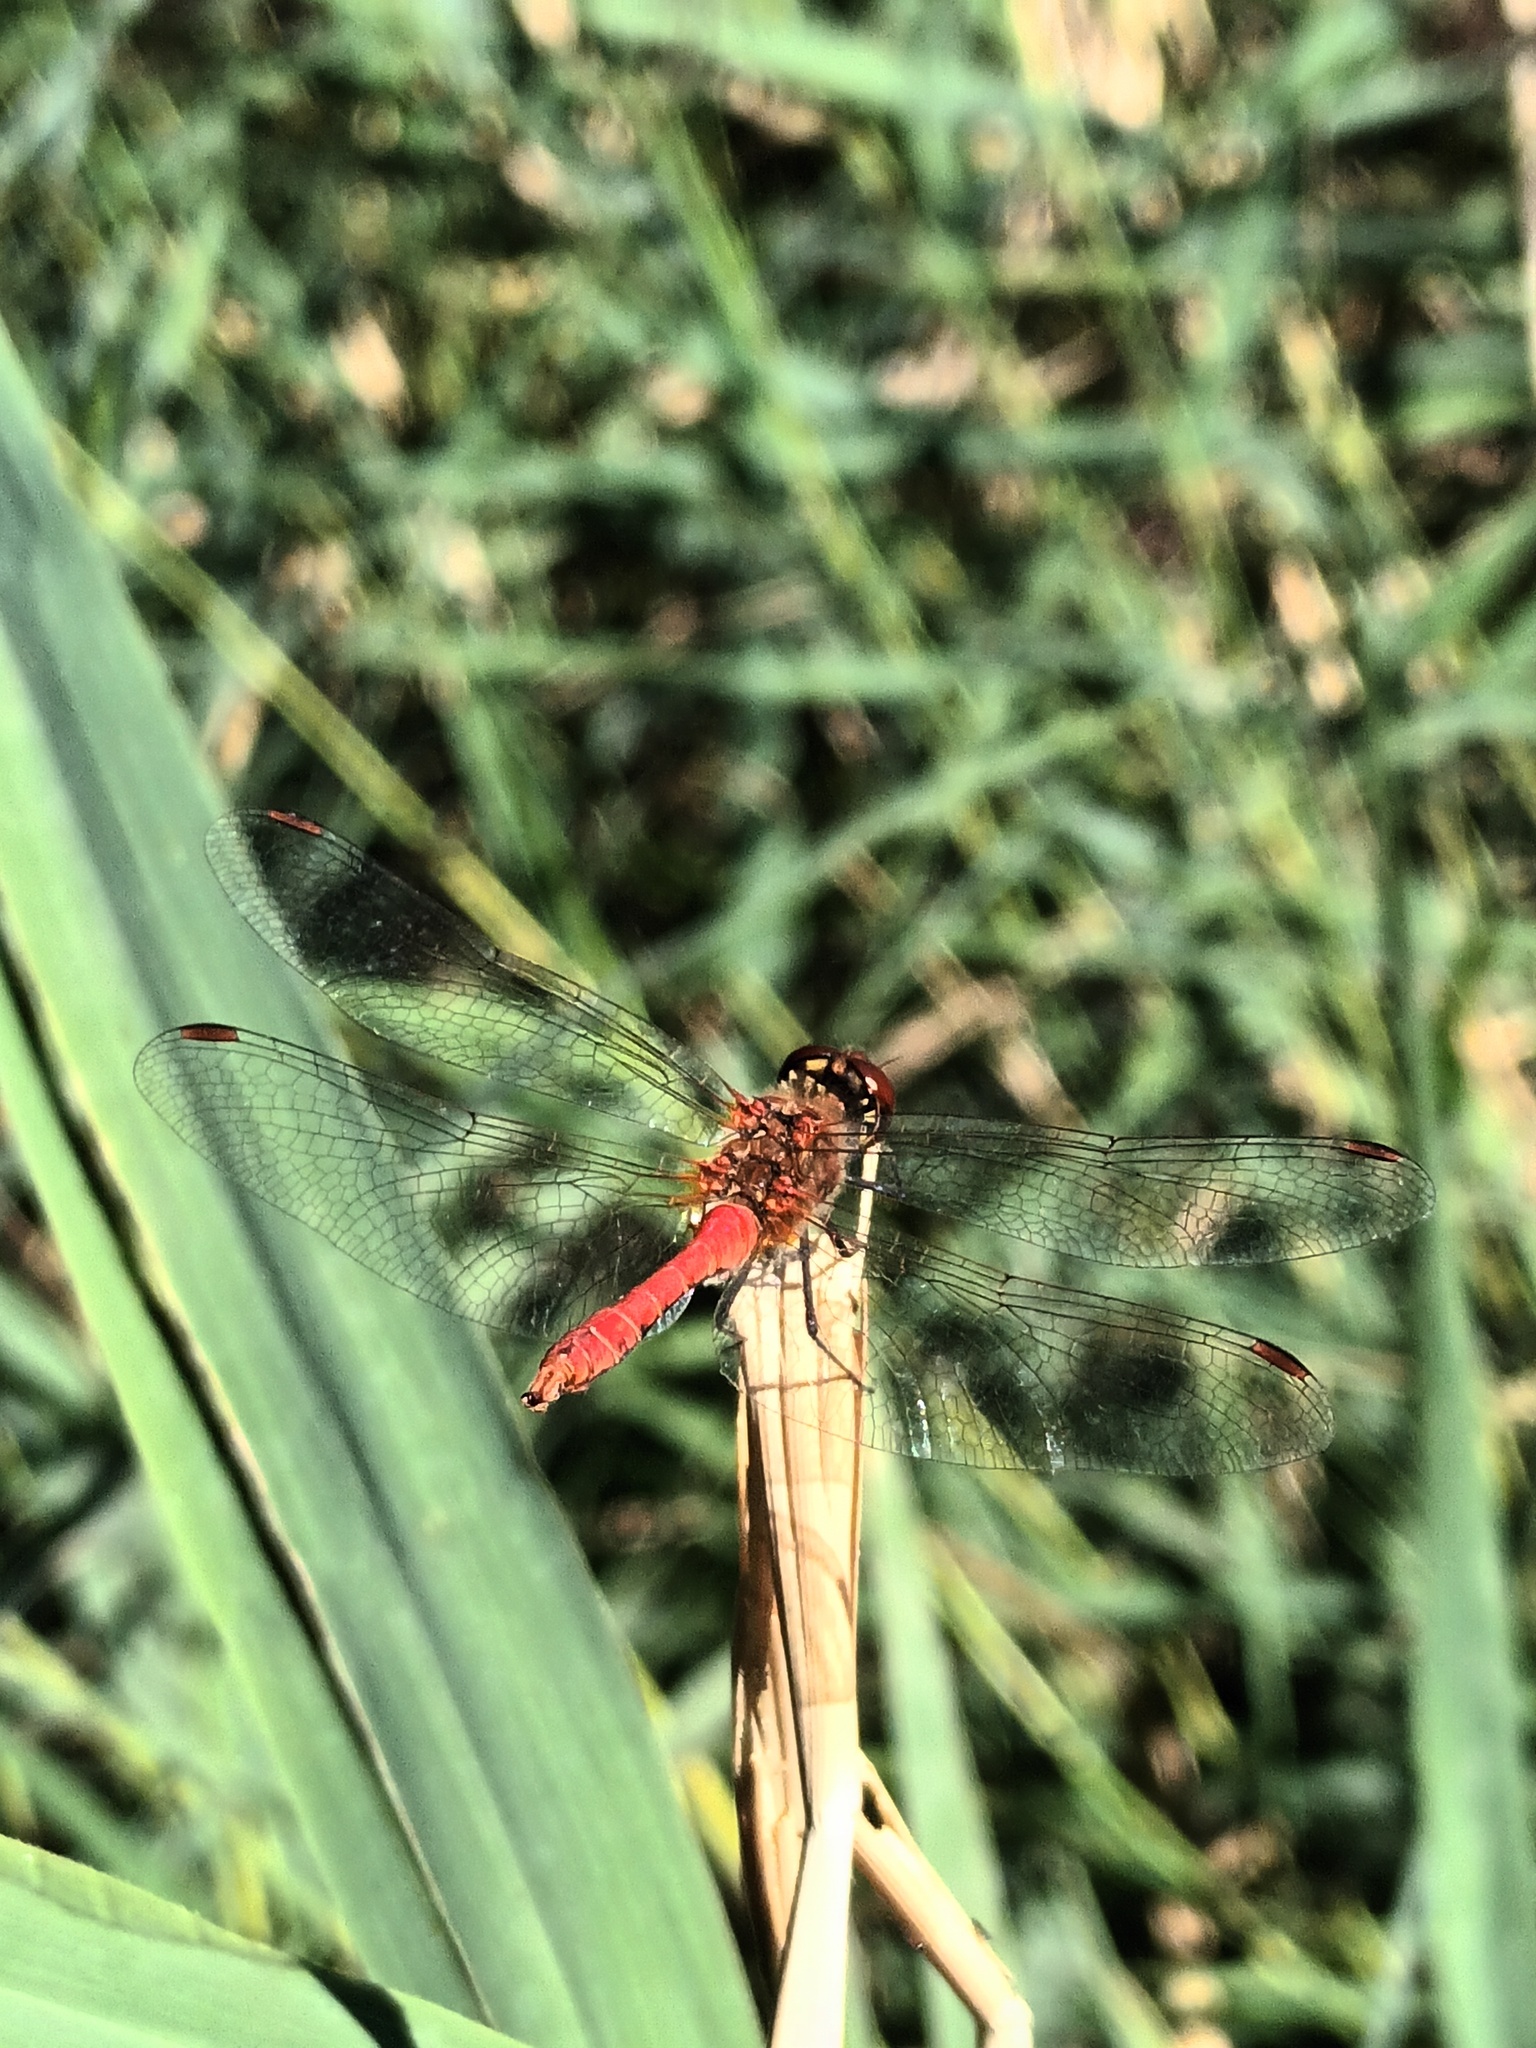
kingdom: Animalia
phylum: Arthropoda
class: Insecta
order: Odonata
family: Libellulidae
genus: Sympetrum
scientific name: Sympetrum sanguineum
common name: Ruddy darter
